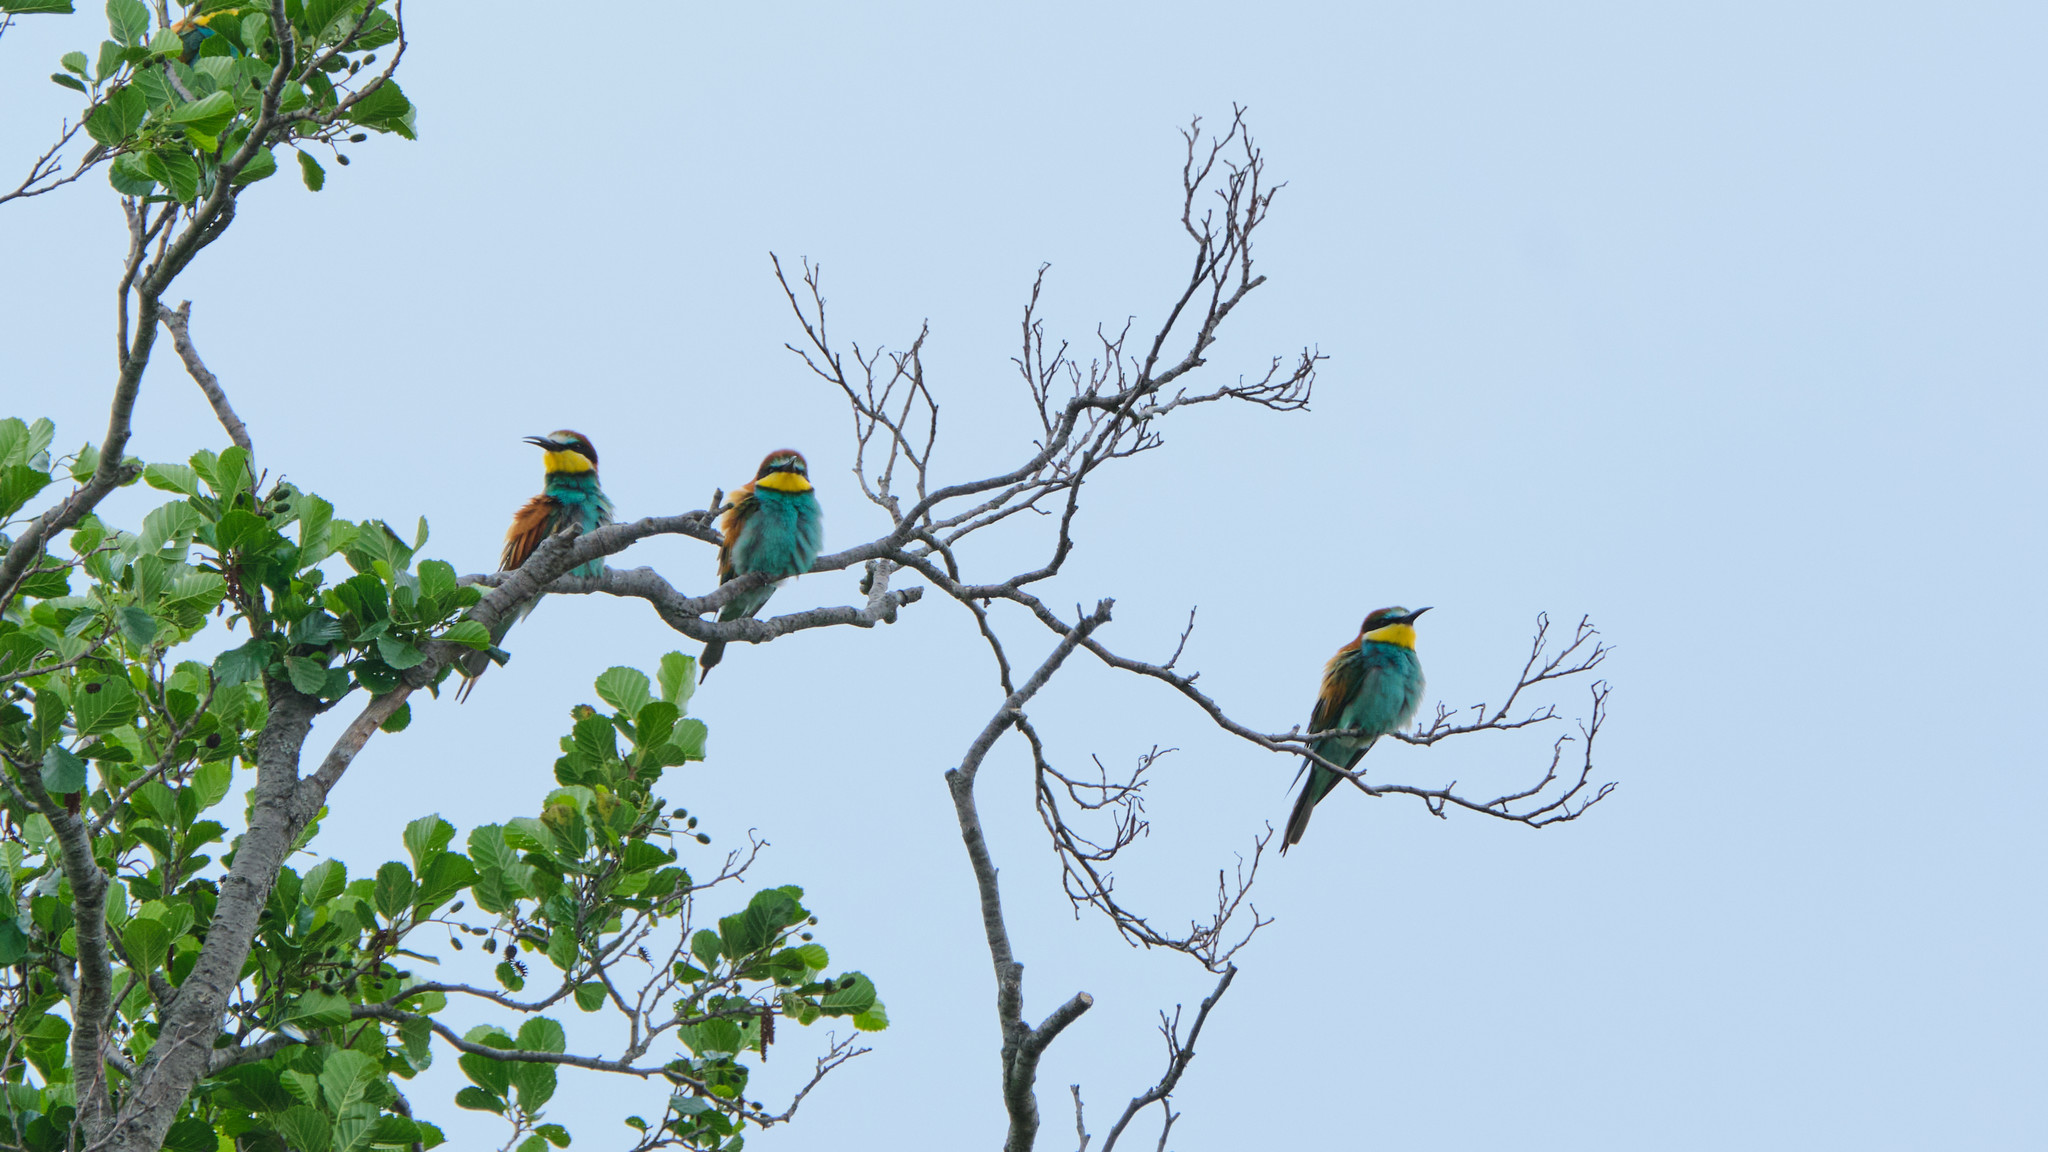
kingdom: Animalia
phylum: Chordata
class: Aves
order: Coraciiformes
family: Meropidae
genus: Merops
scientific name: Merops apiaster
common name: European bee-eater
